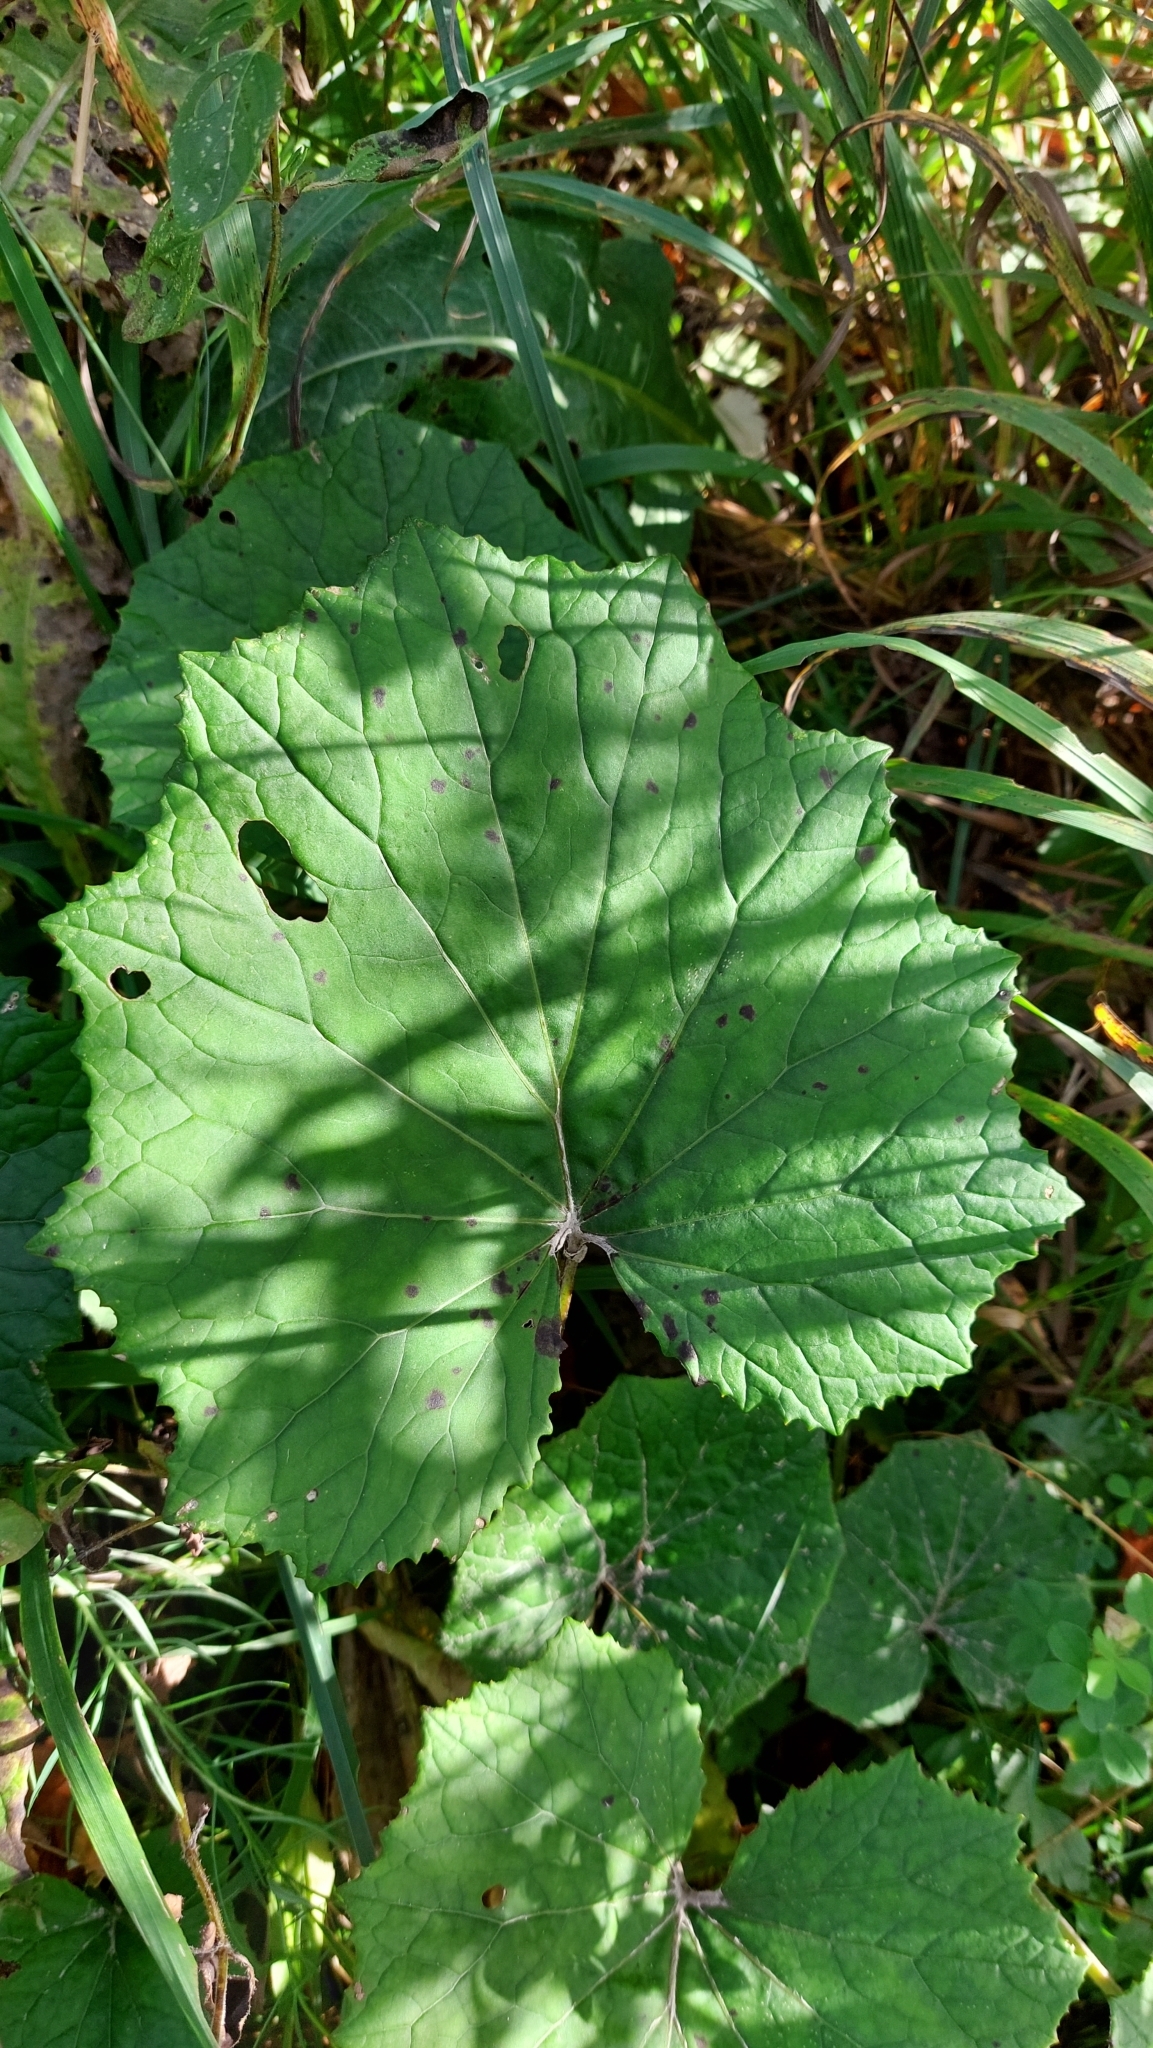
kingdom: Plantae
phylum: Tracheophyta
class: Magnoliopsida
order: Asterales
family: Asteraceae
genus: Tussilago
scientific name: Tussilago farfara
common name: Coltsfoot
